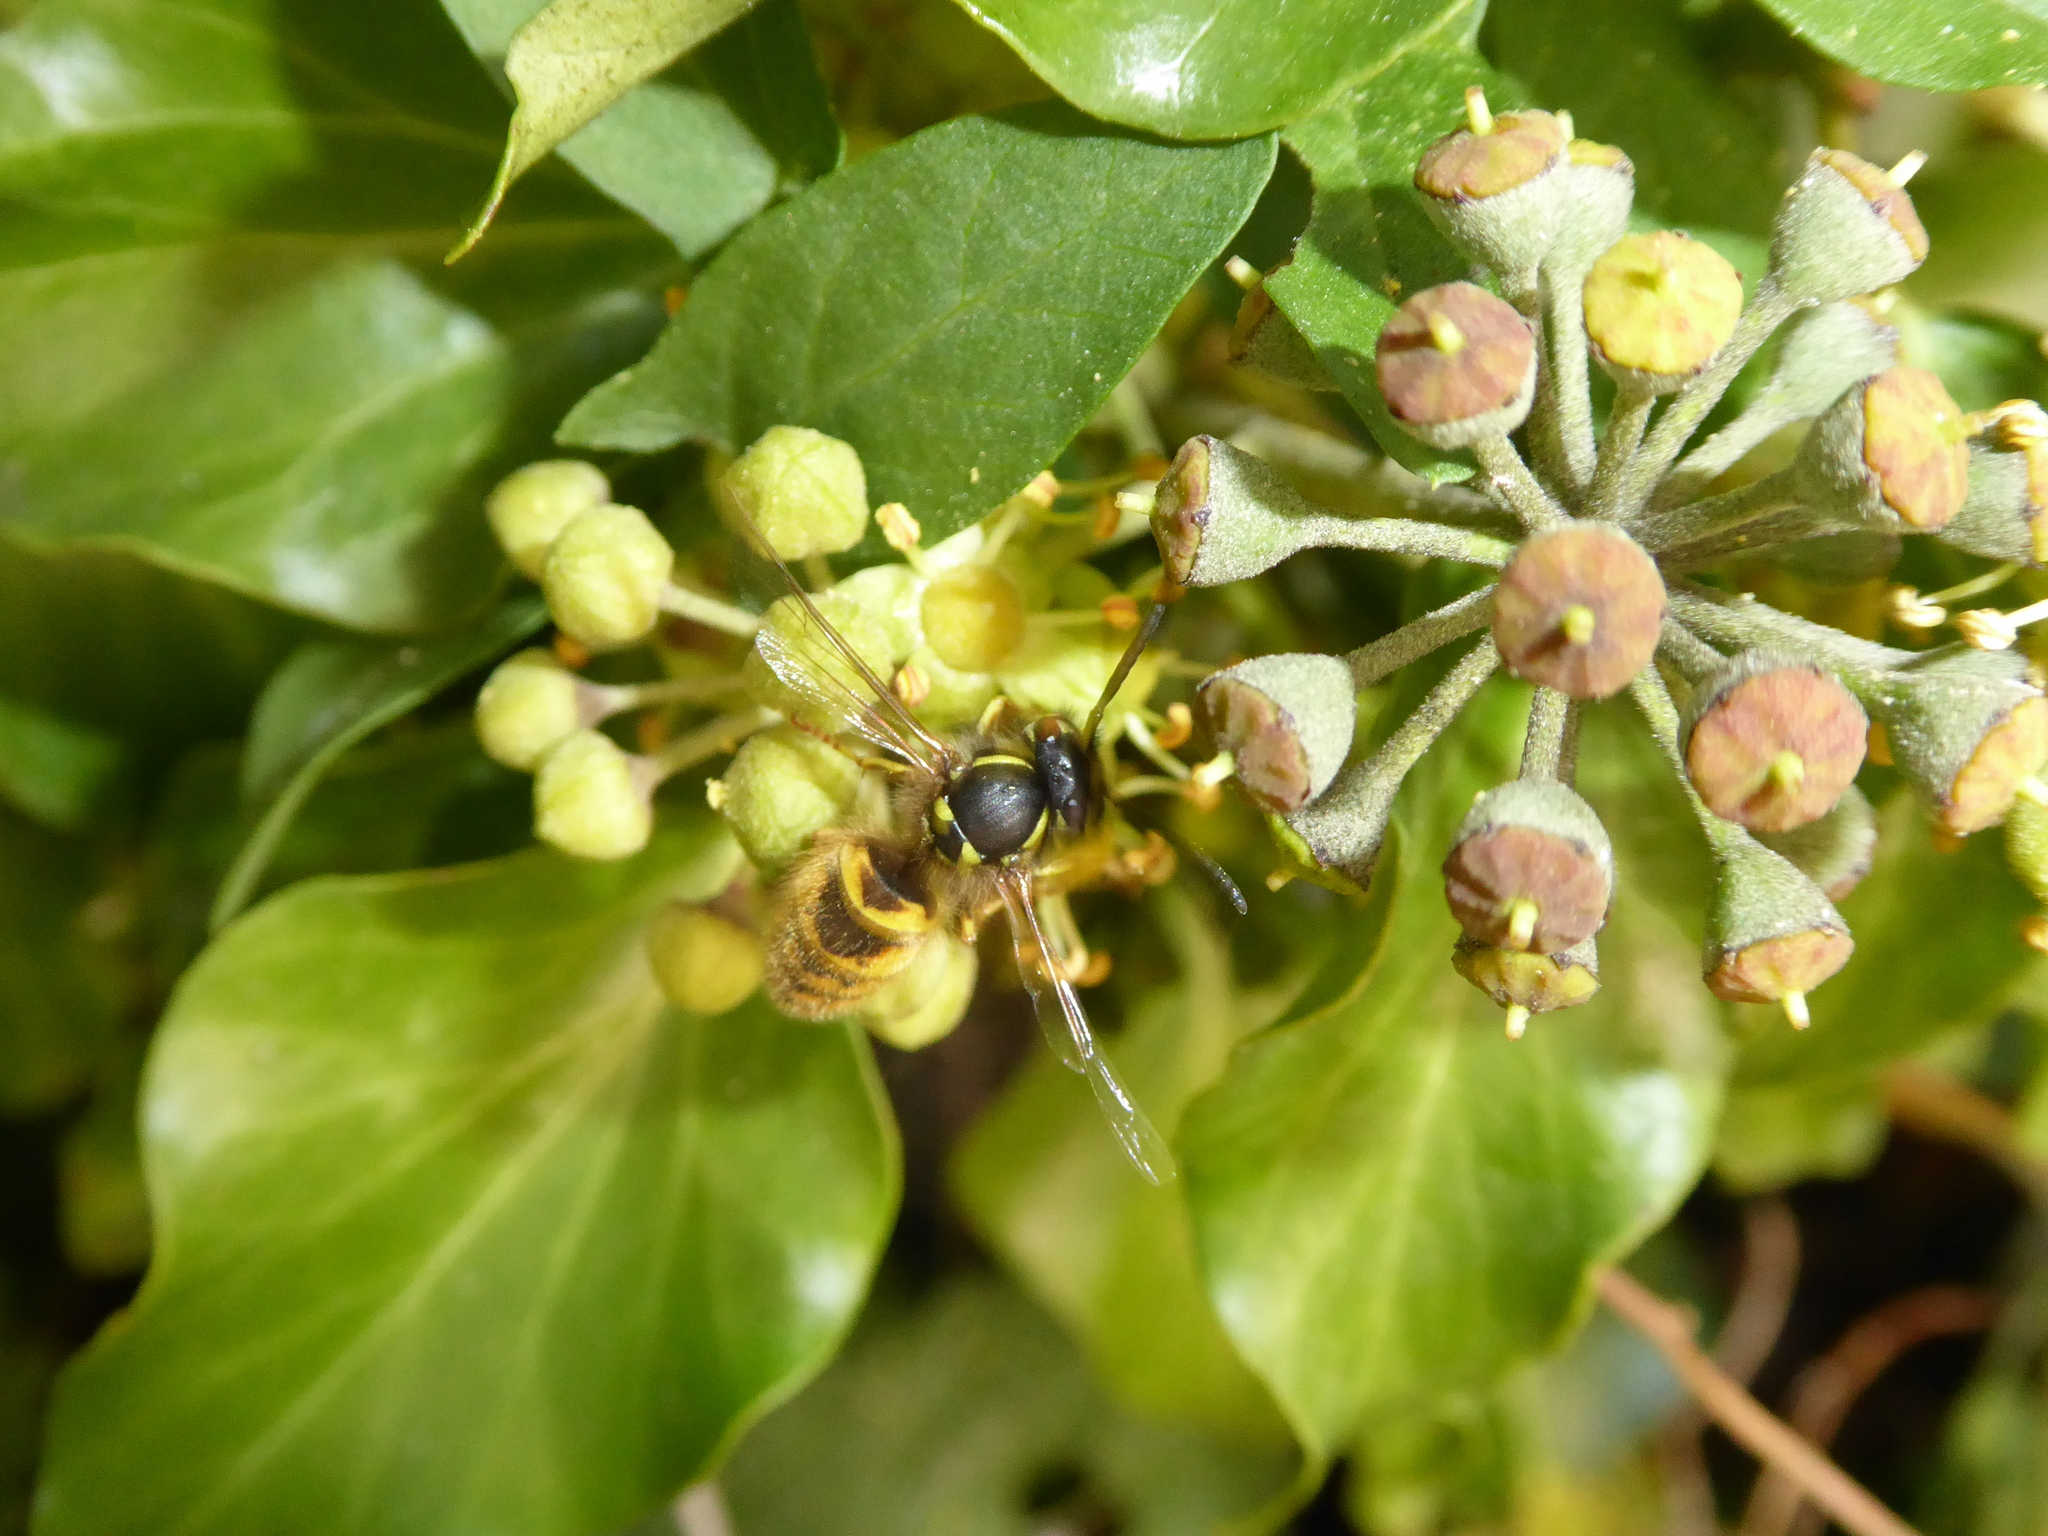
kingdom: Animalia
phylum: Arthropoda
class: Insecta
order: Hymenoptera
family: Vespidae
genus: Vespula
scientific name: Vespula vulgaris
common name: Common wasp
